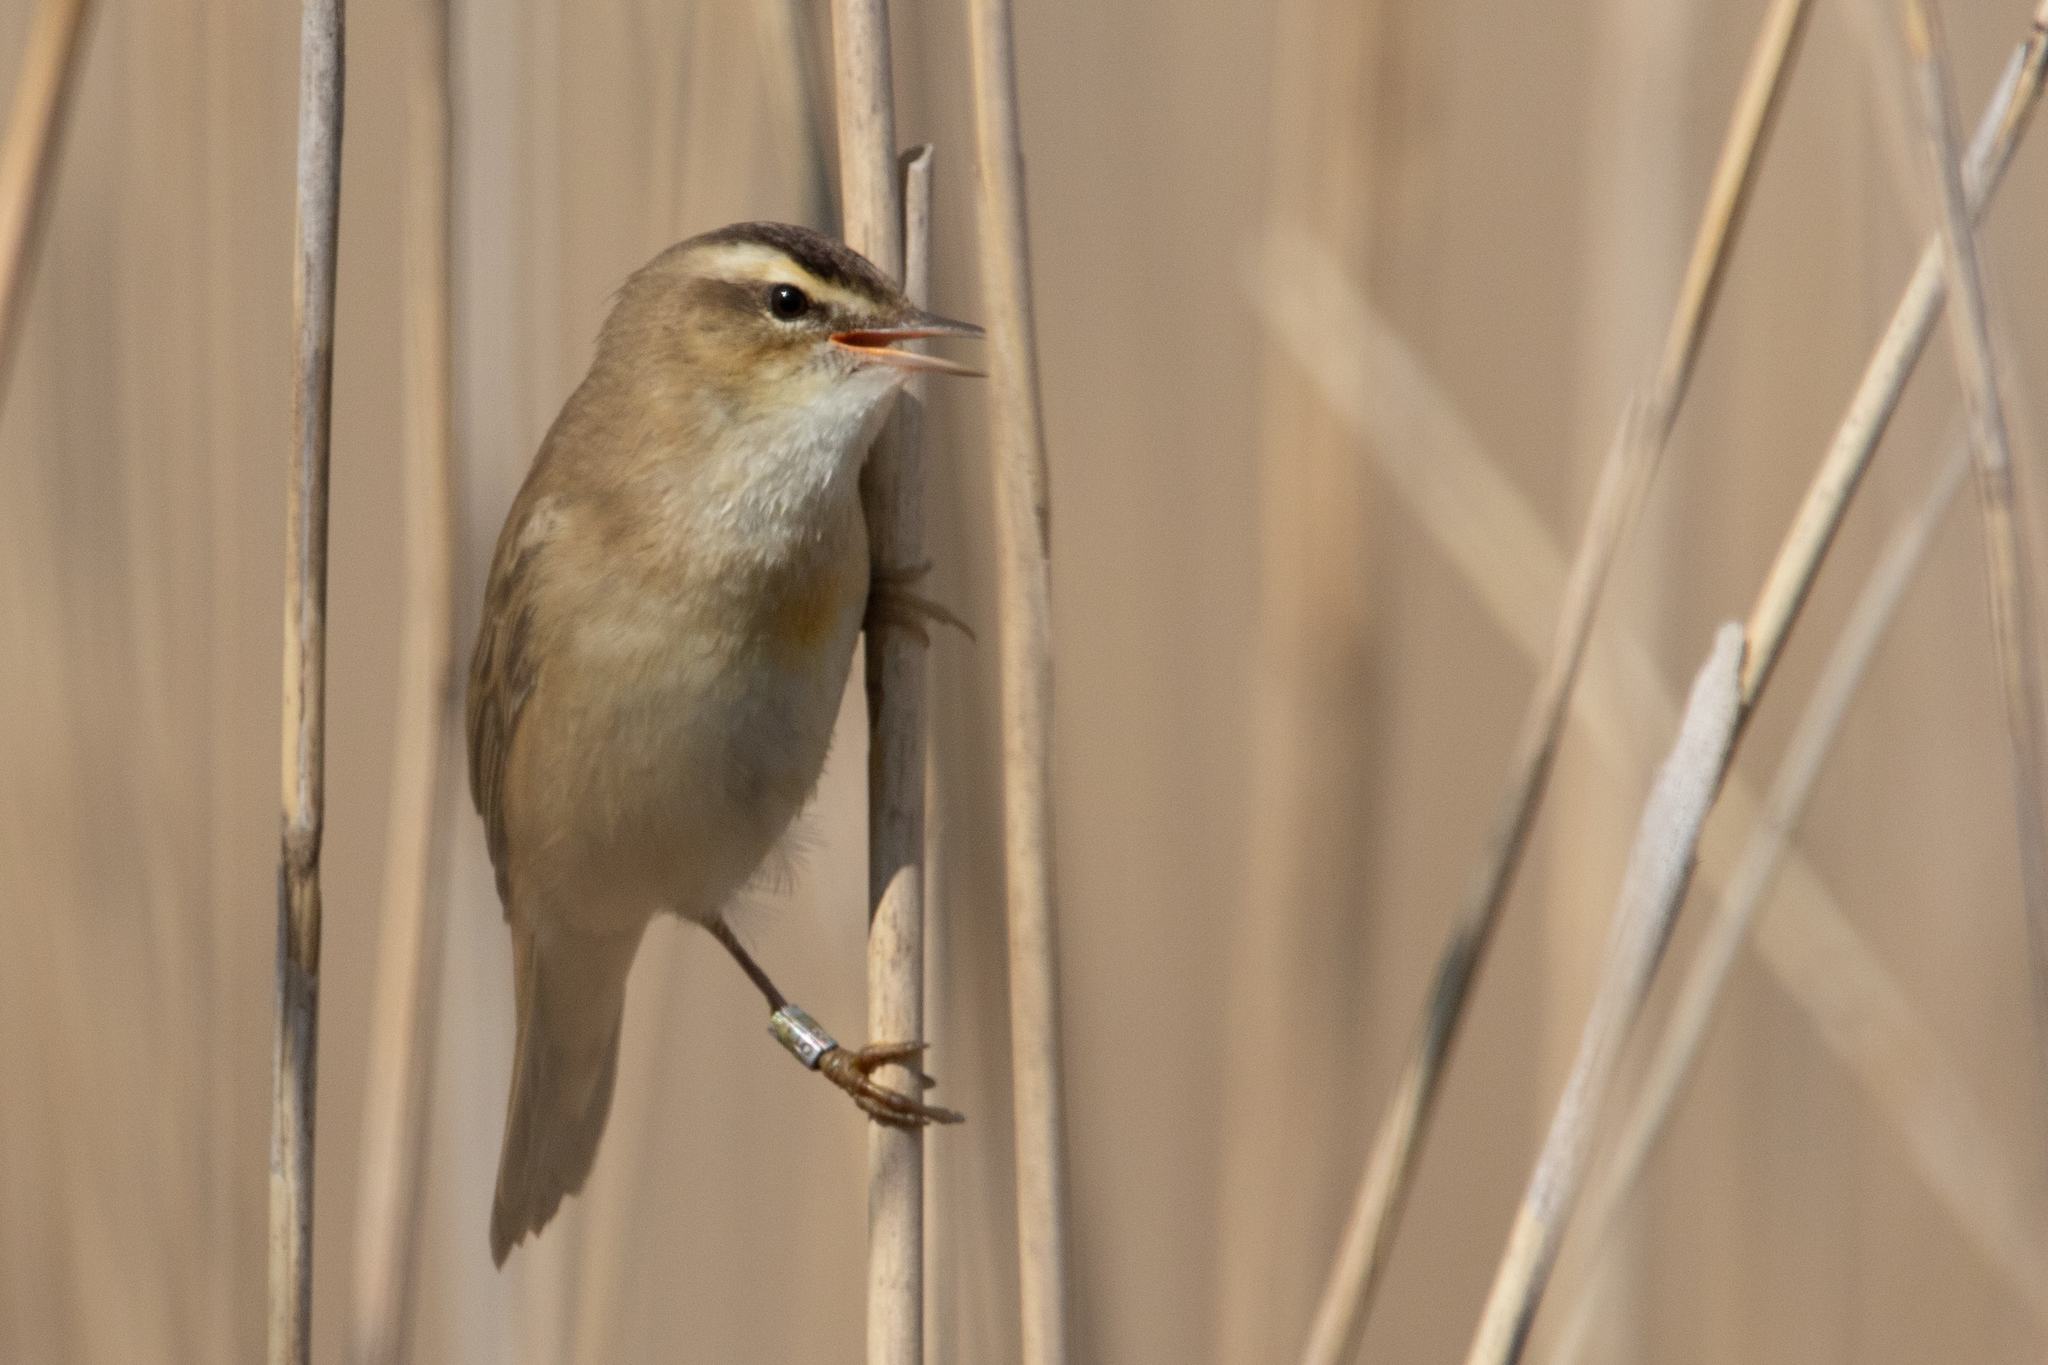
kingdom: Animalia
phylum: Chordata
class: Aves
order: Passeriformes
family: Acrocephalidae
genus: Acrocephalus
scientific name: Acrocephalus schoenobaenus
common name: Sedge warbler
